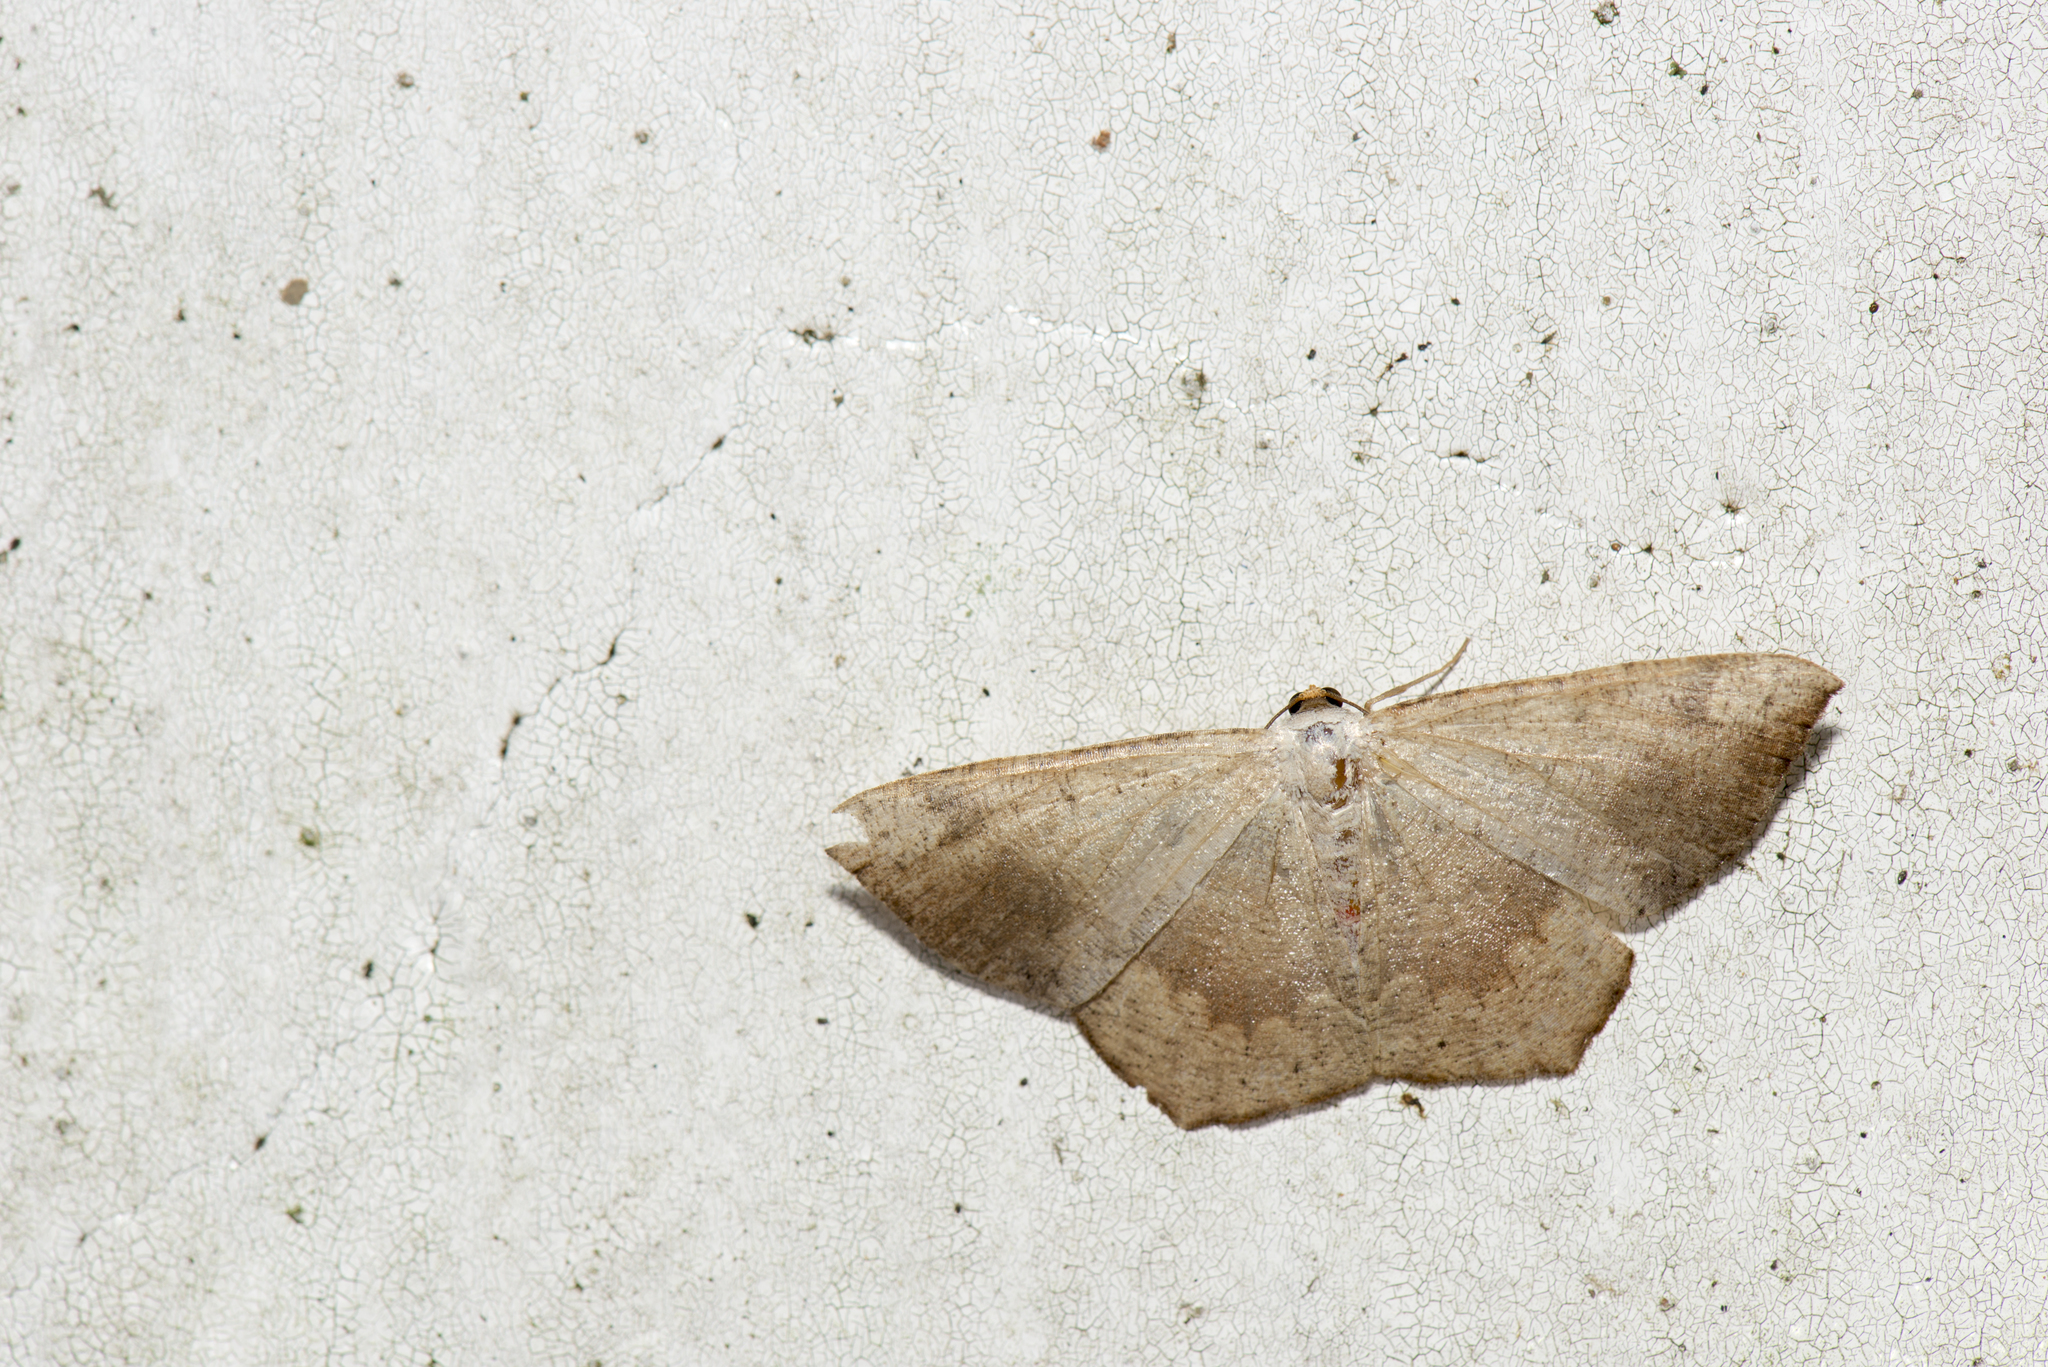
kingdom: Animalia
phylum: Arthropoda
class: Insecta
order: Lepidoptera
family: Geometridae
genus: Peratostega
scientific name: Peratostega deletaria
